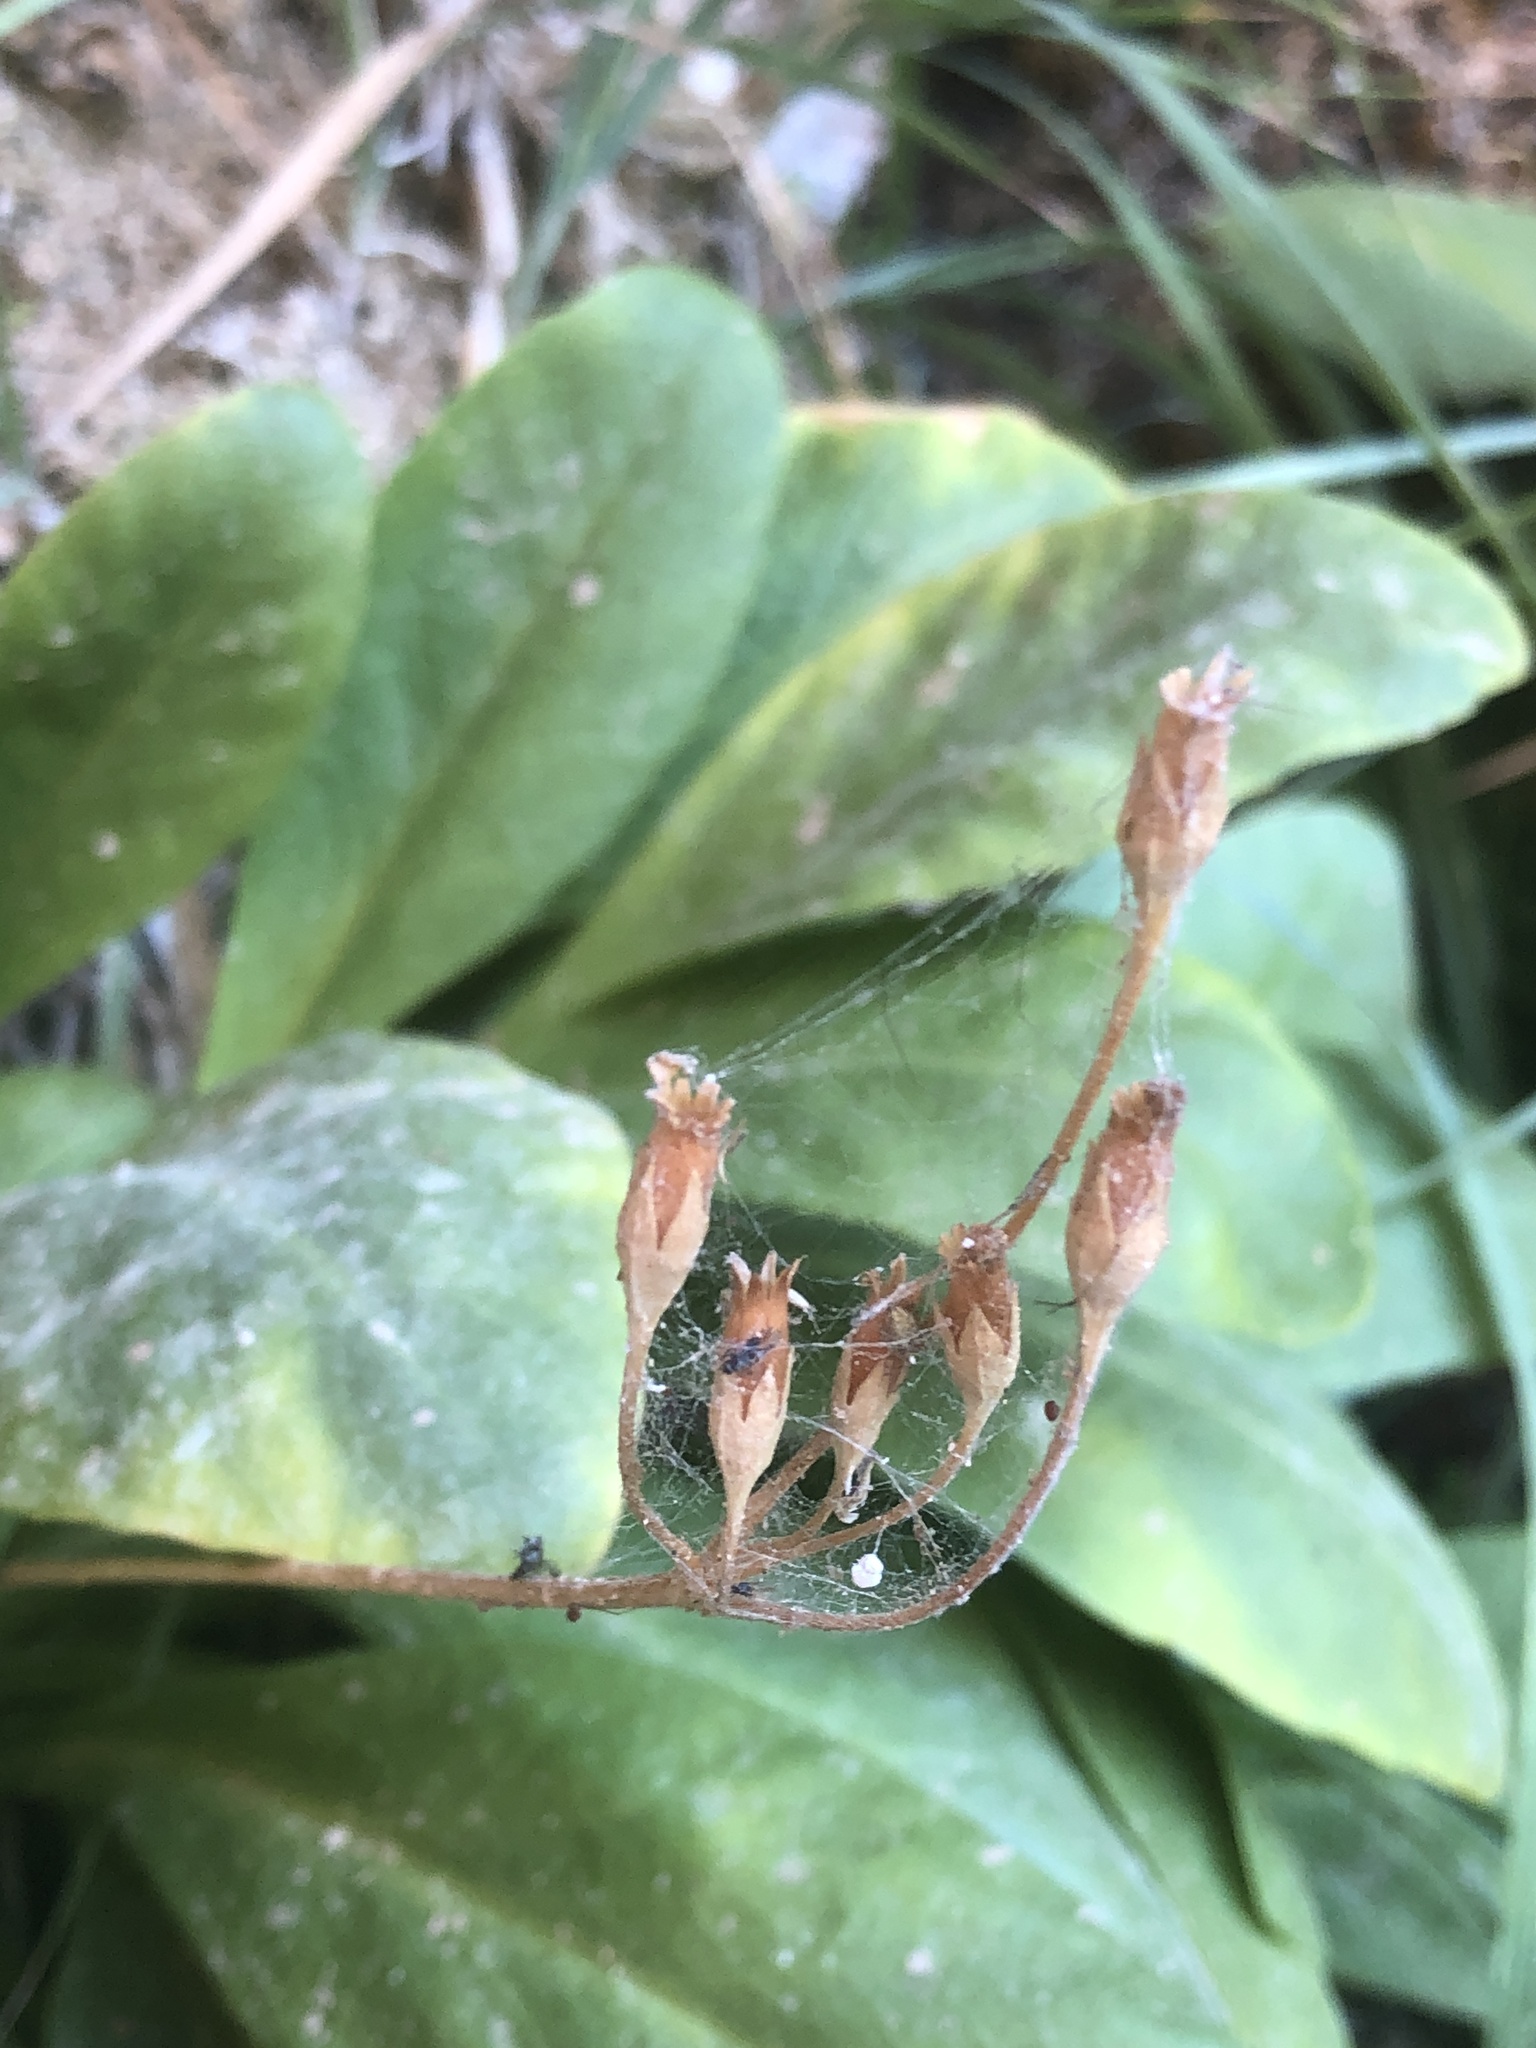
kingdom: Plantae
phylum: Tracheophyta
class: Magnoliopsida
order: Ericales
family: Primulaceae
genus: Dodecatheon
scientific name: Dodecatheon pulchellum
